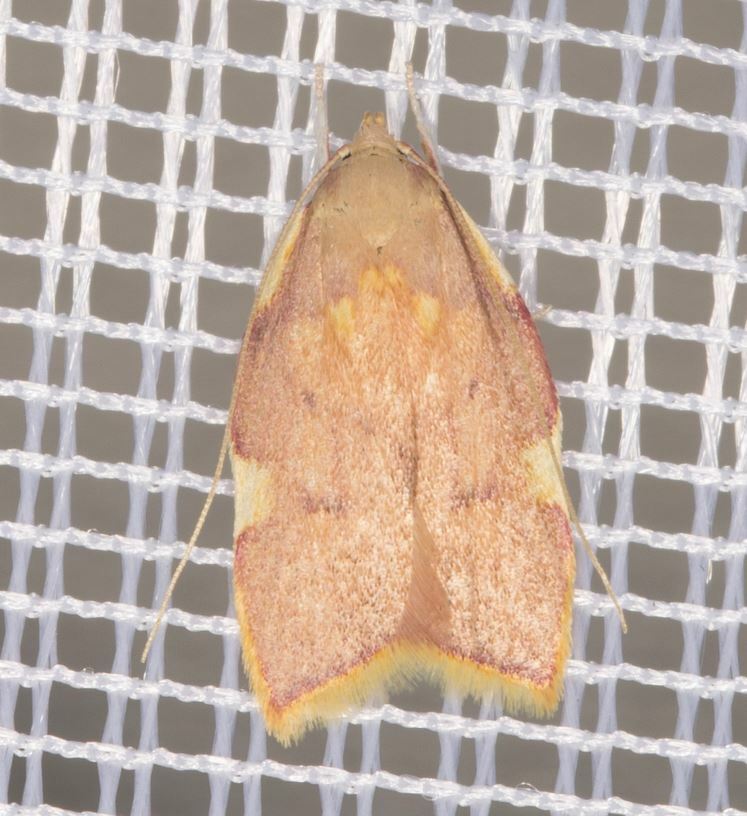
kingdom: Animalia
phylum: Arthropoda
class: Insecta
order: Lepidoptera
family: Peleopodidae
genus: Carcina
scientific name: Carcina quercana
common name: Moth
